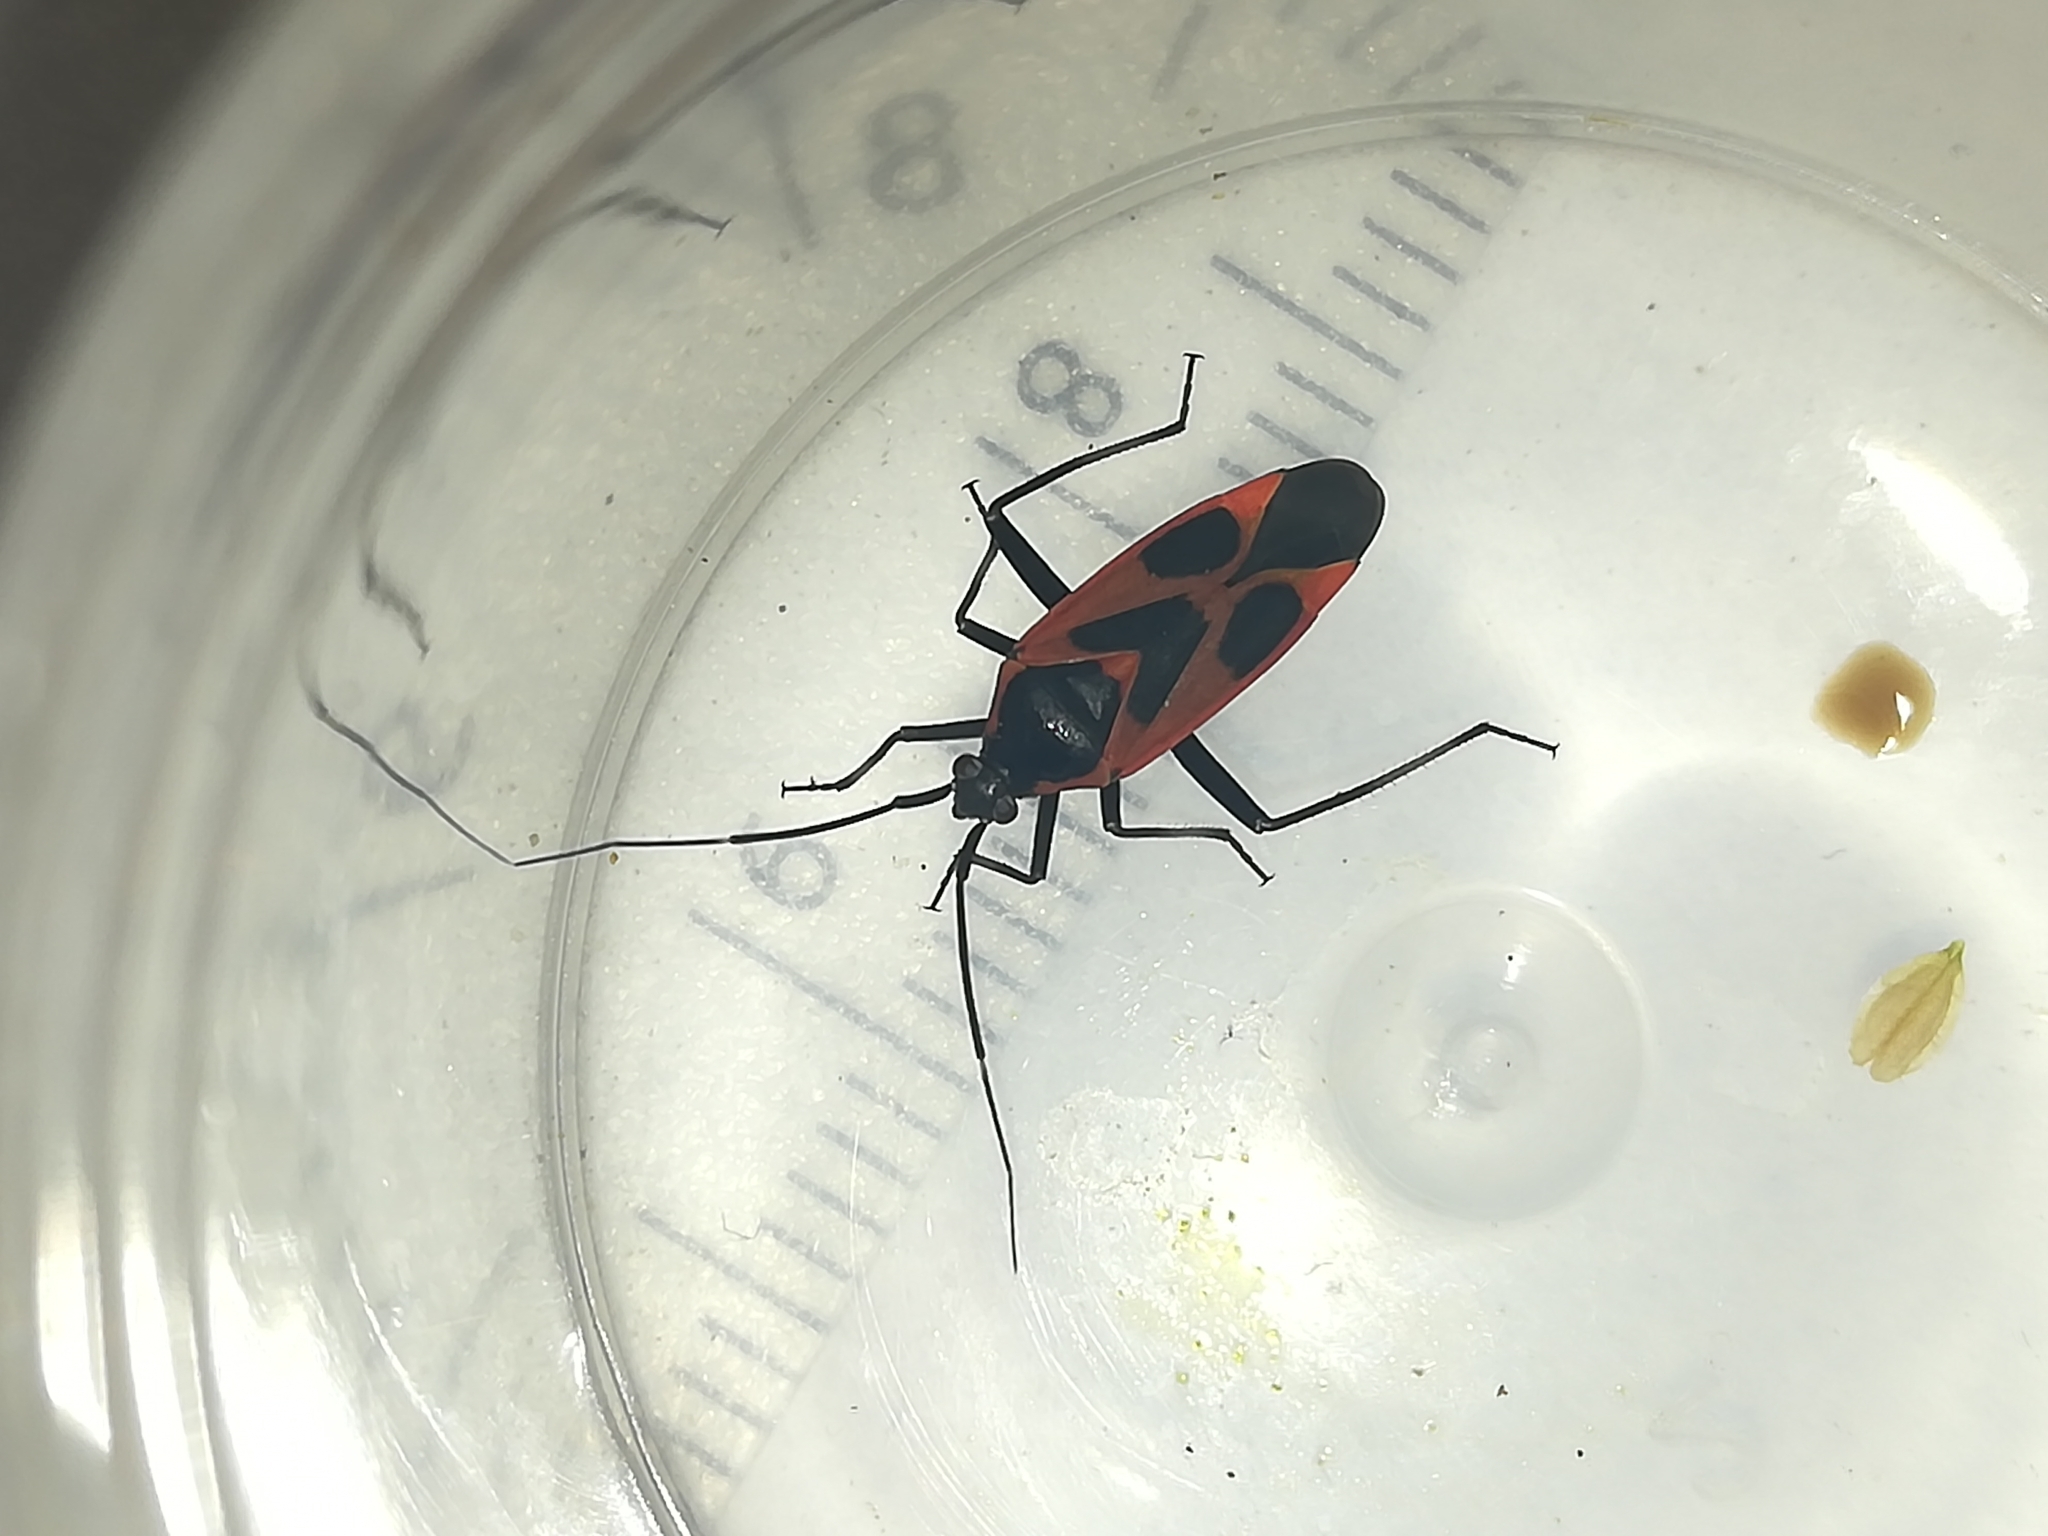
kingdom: Animalia
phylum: Arthropoda
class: Insecta
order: Hemiptera
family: Miridae
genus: Calocoris
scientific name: Calocoris nemoralis
